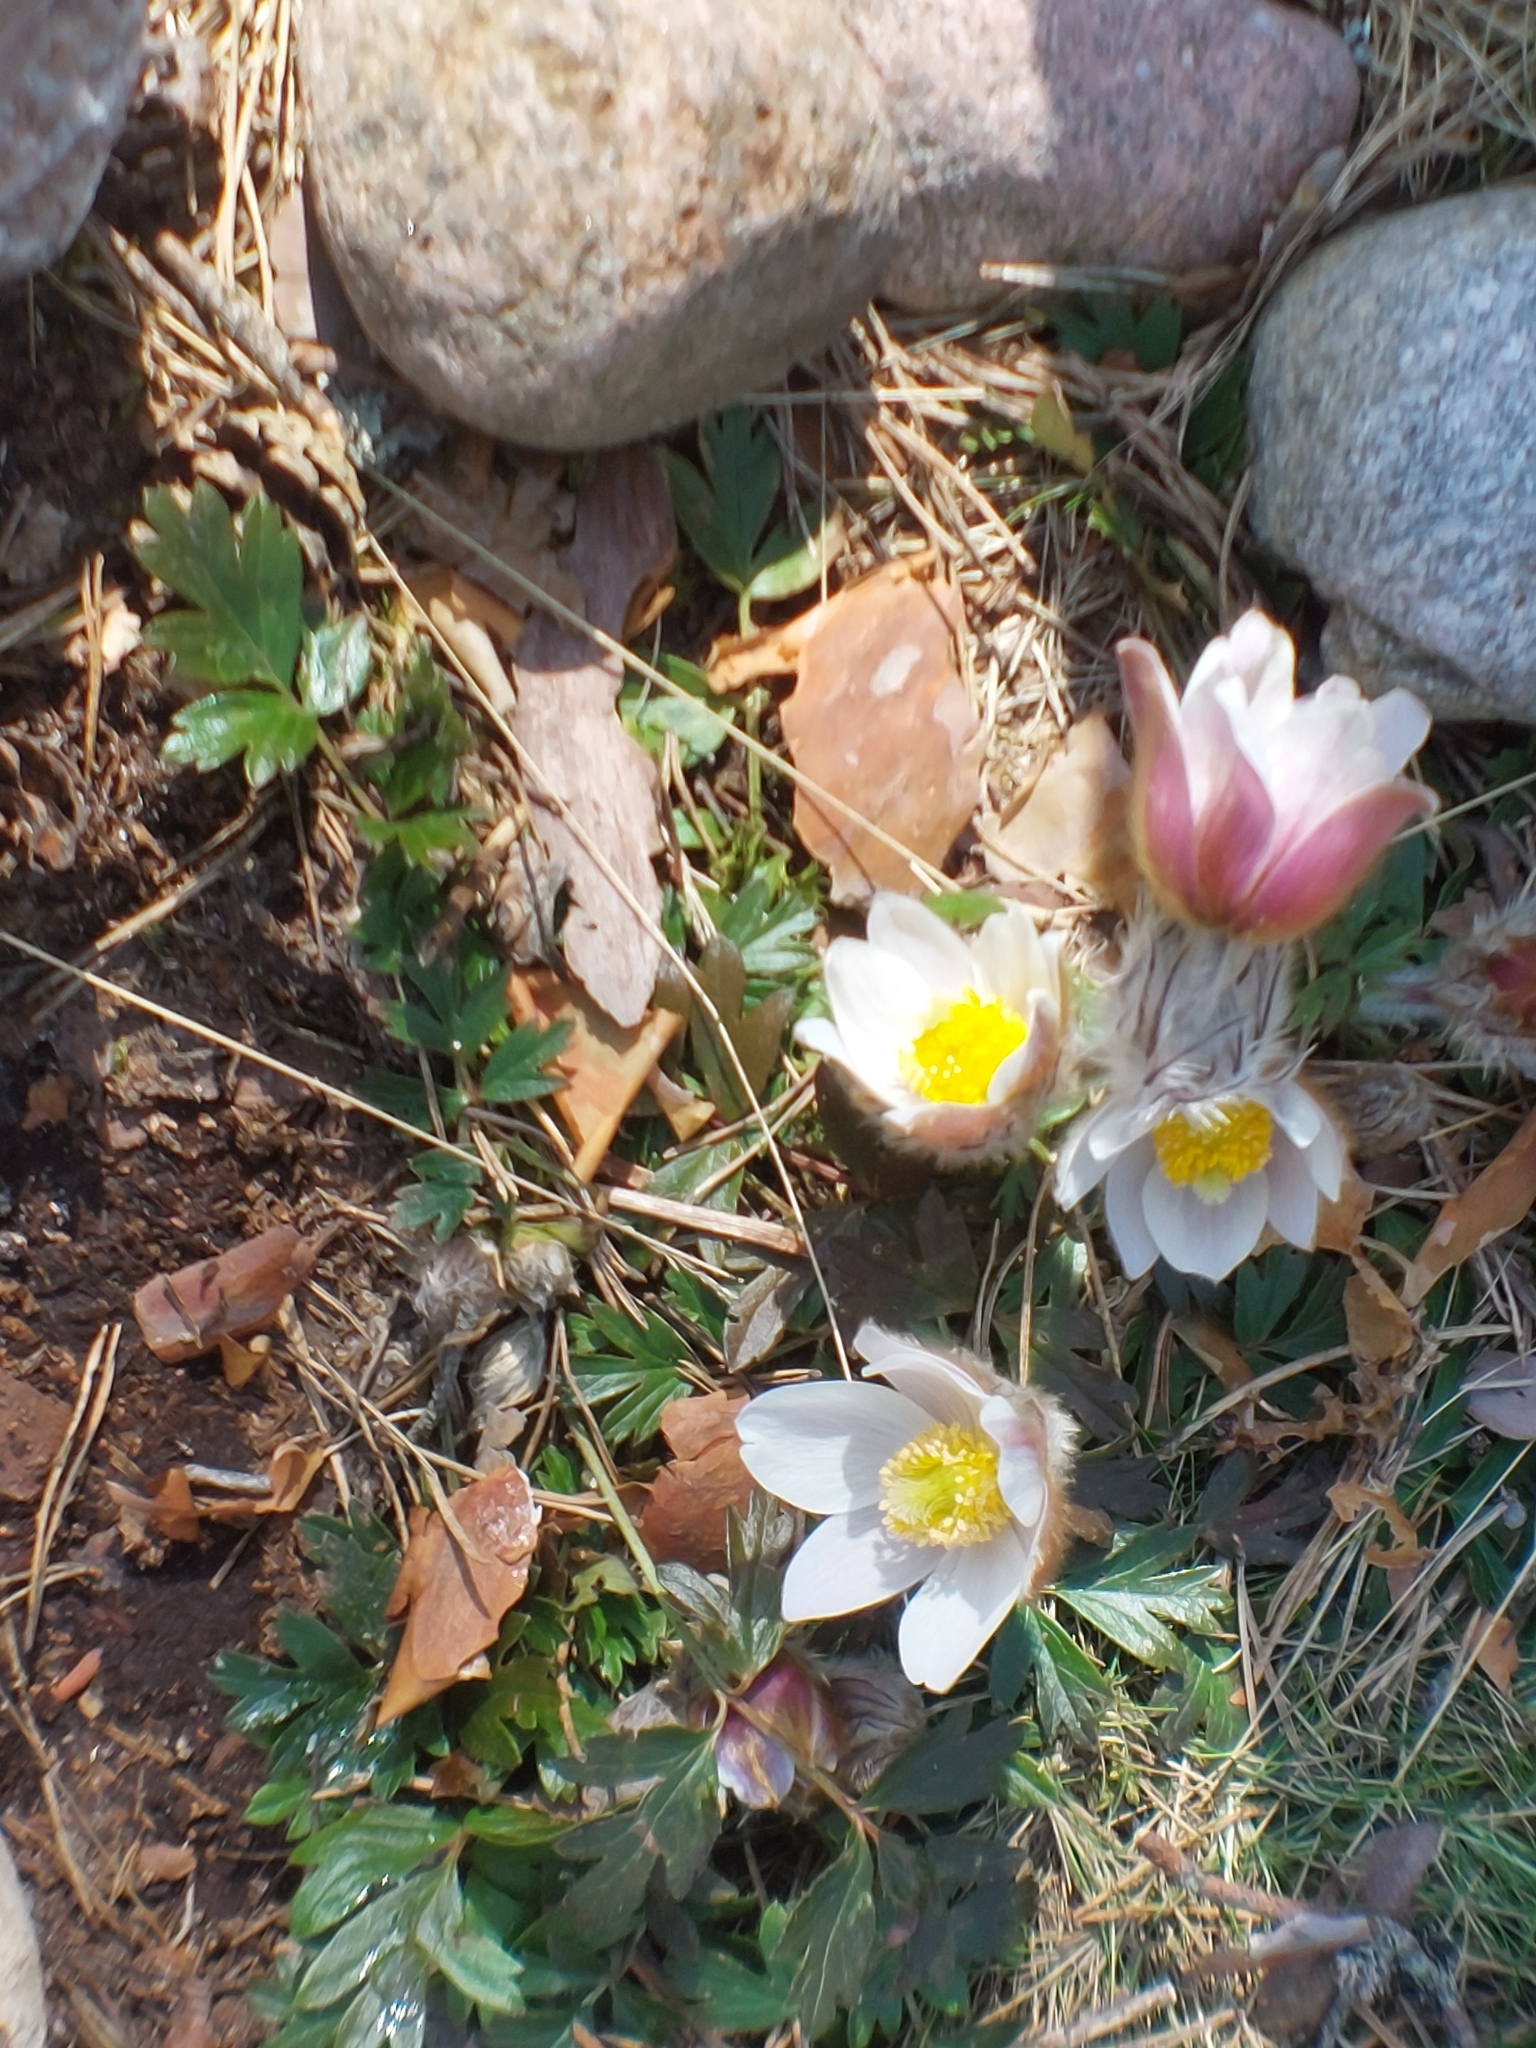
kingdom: Plantae
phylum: Tracheophyta
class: Magnoliopsida
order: Ranunculales
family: Ranunculaceae
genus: Pulsatilla
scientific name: Pulsatilla vernalis
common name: Spring pasque flower
